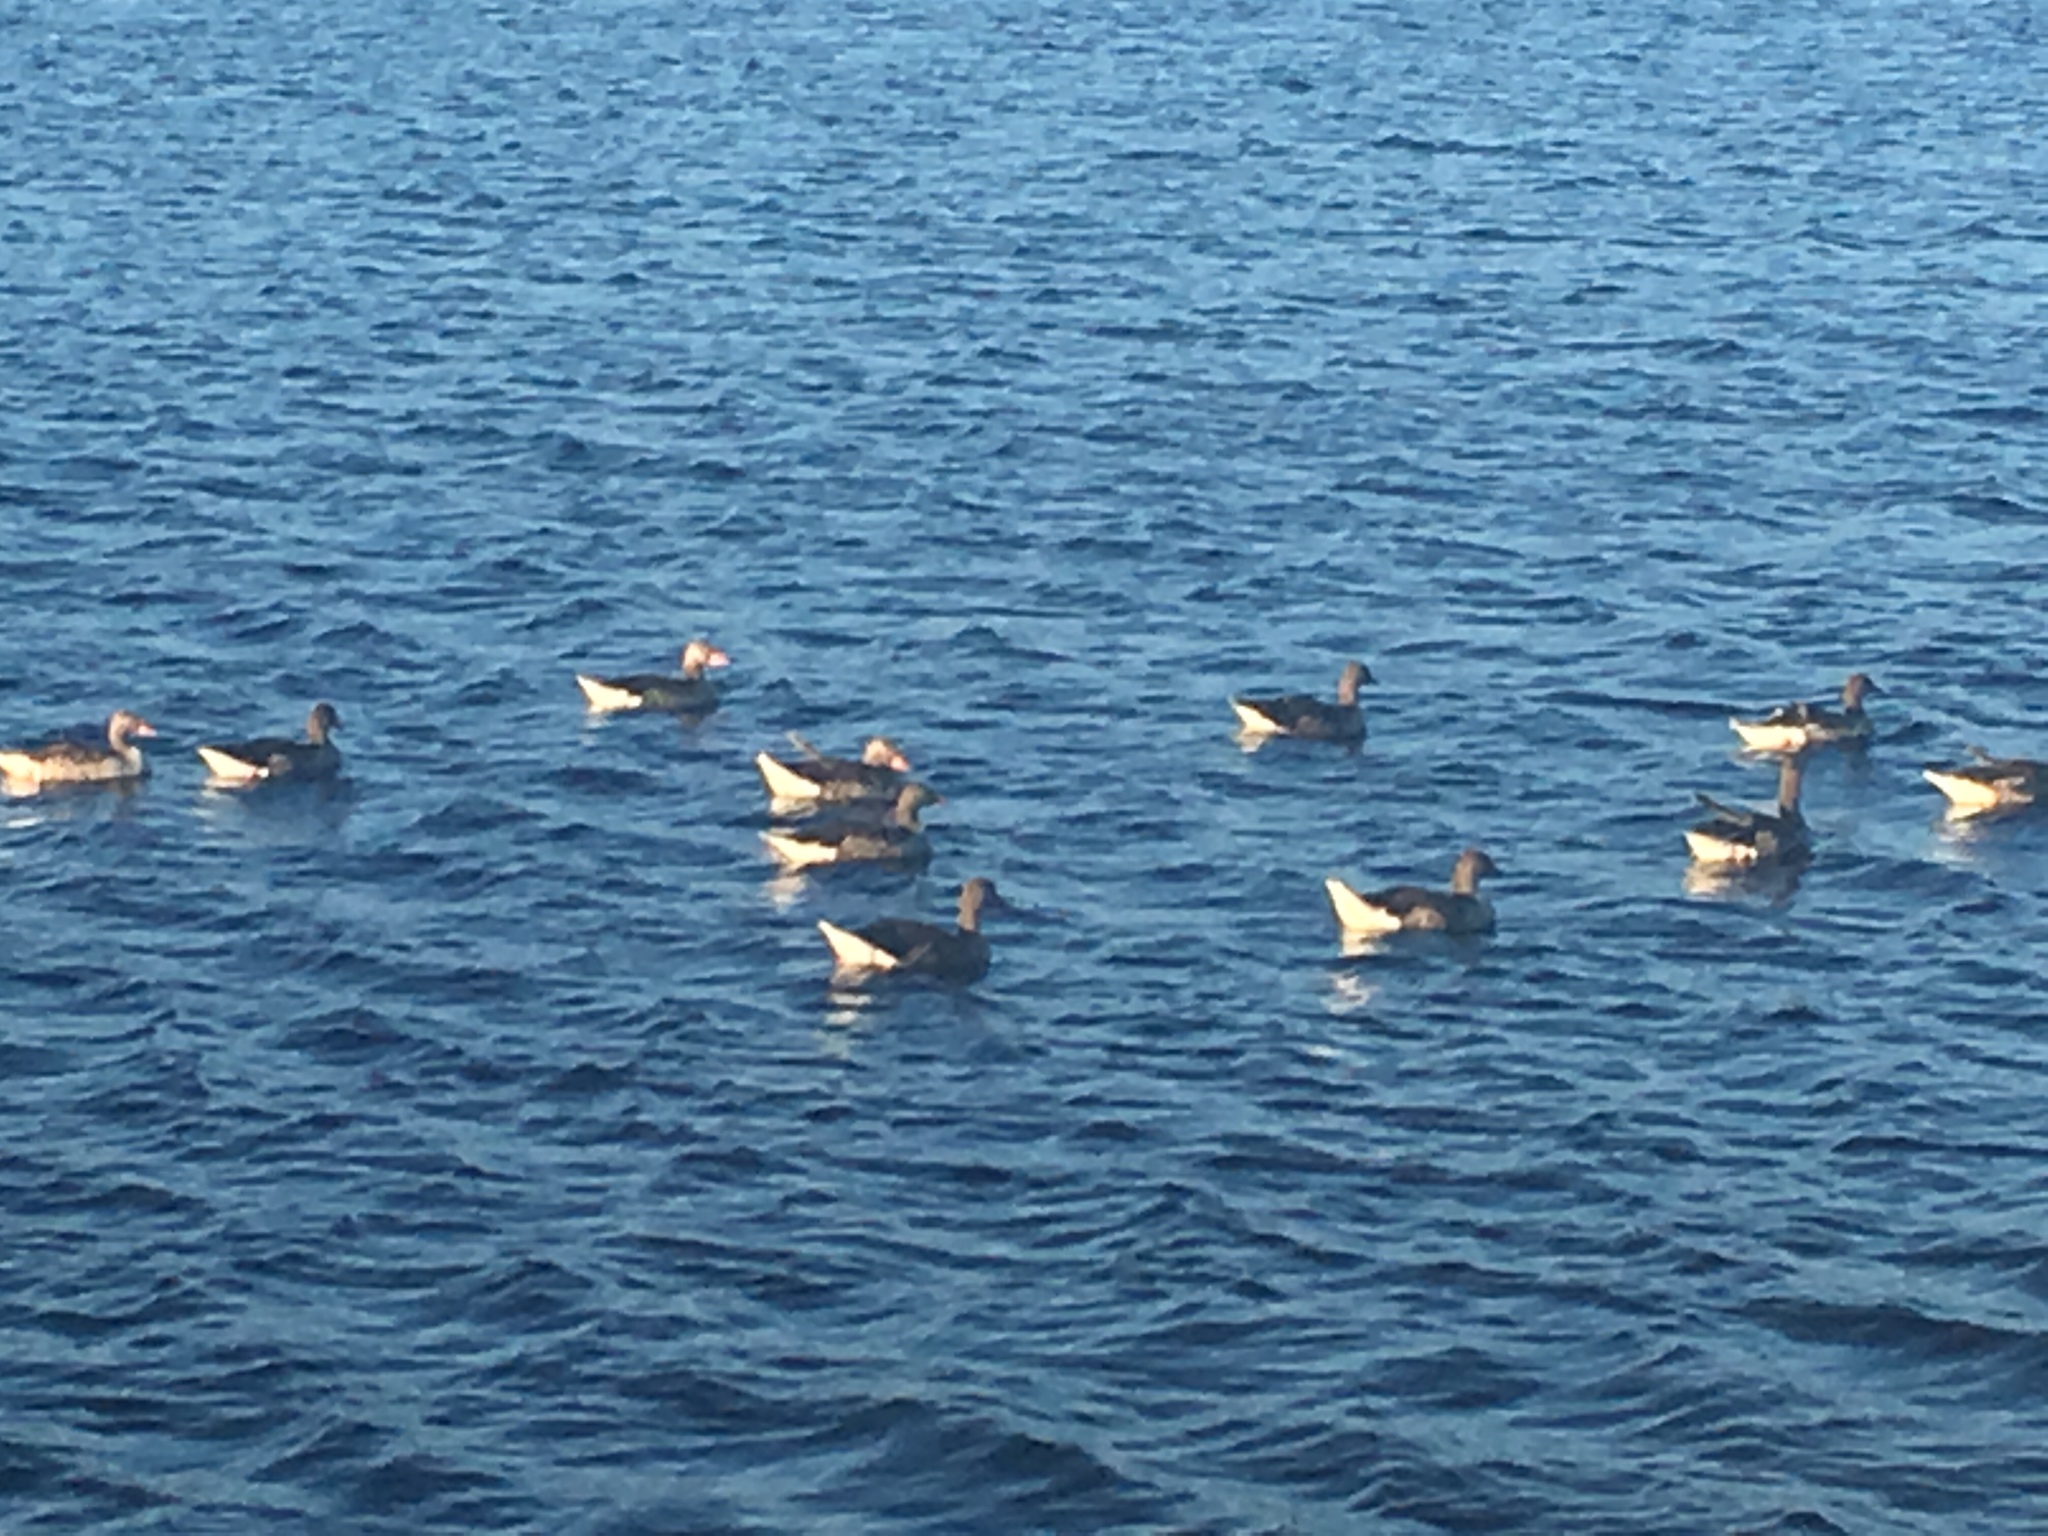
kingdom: Animalia
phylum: Chordata
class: Aves
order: Anseriformes
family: Anatidae
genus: Anser
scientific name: Anser anser
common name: Greylag goose
